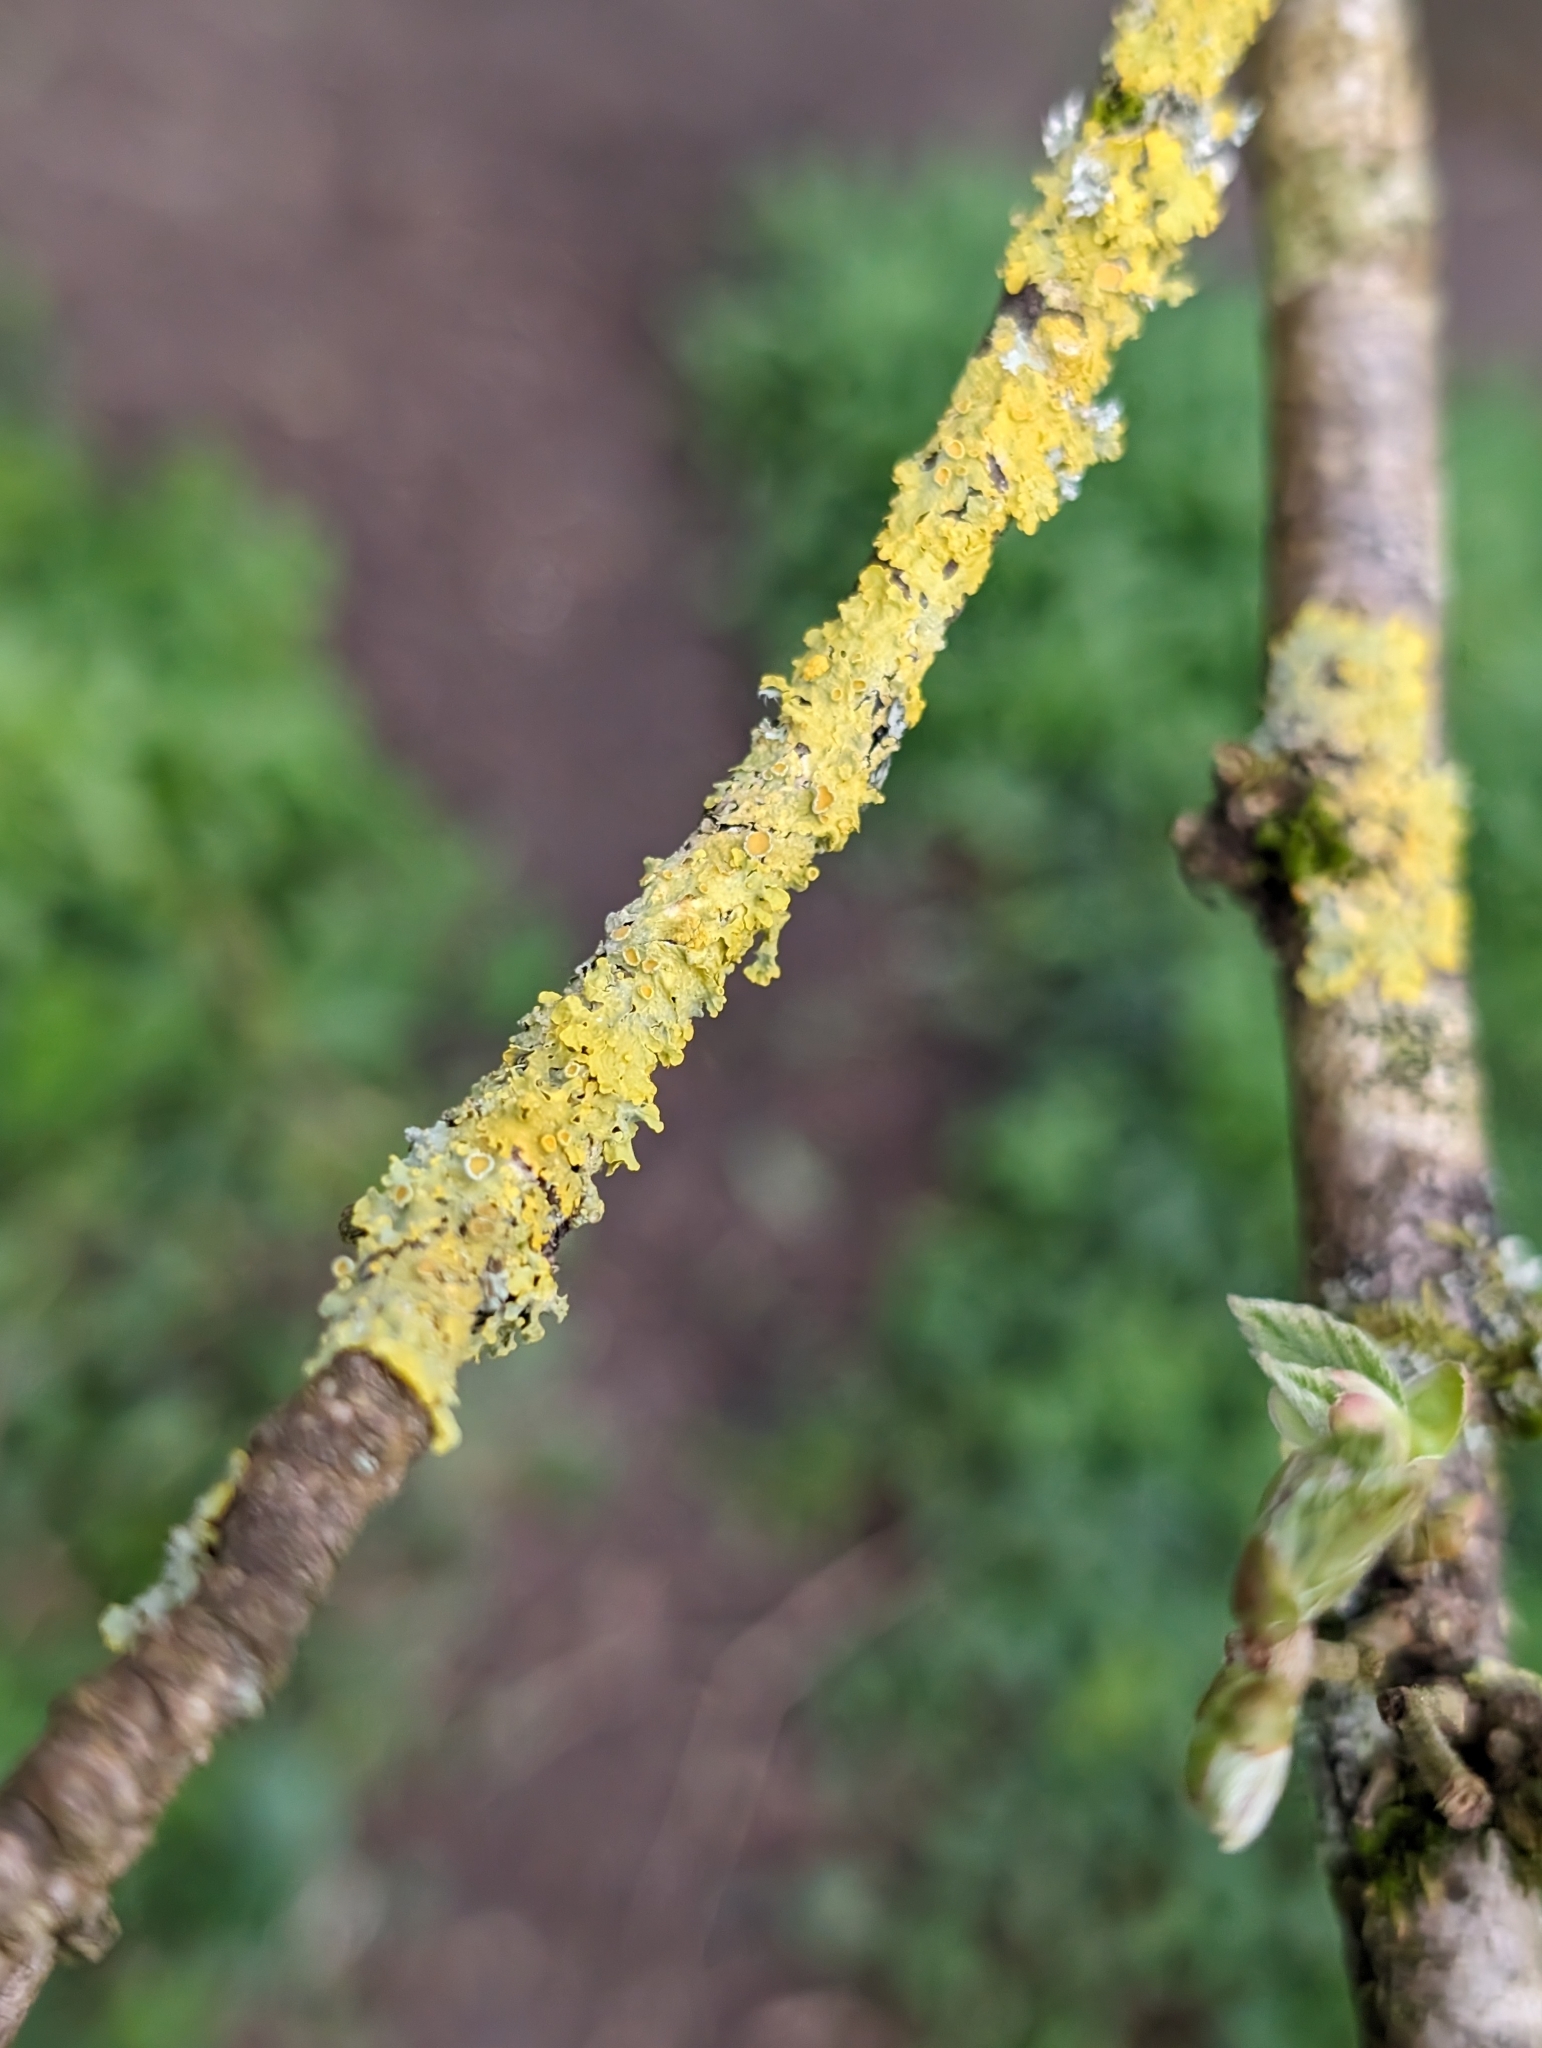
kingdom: Fungi
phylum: Ascomycota
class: Lecanoromycetes
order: Teloschistales
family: Teloschistaceae
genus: Xanthoria
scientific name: Xanthoria parietina
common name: Common orange lichen
